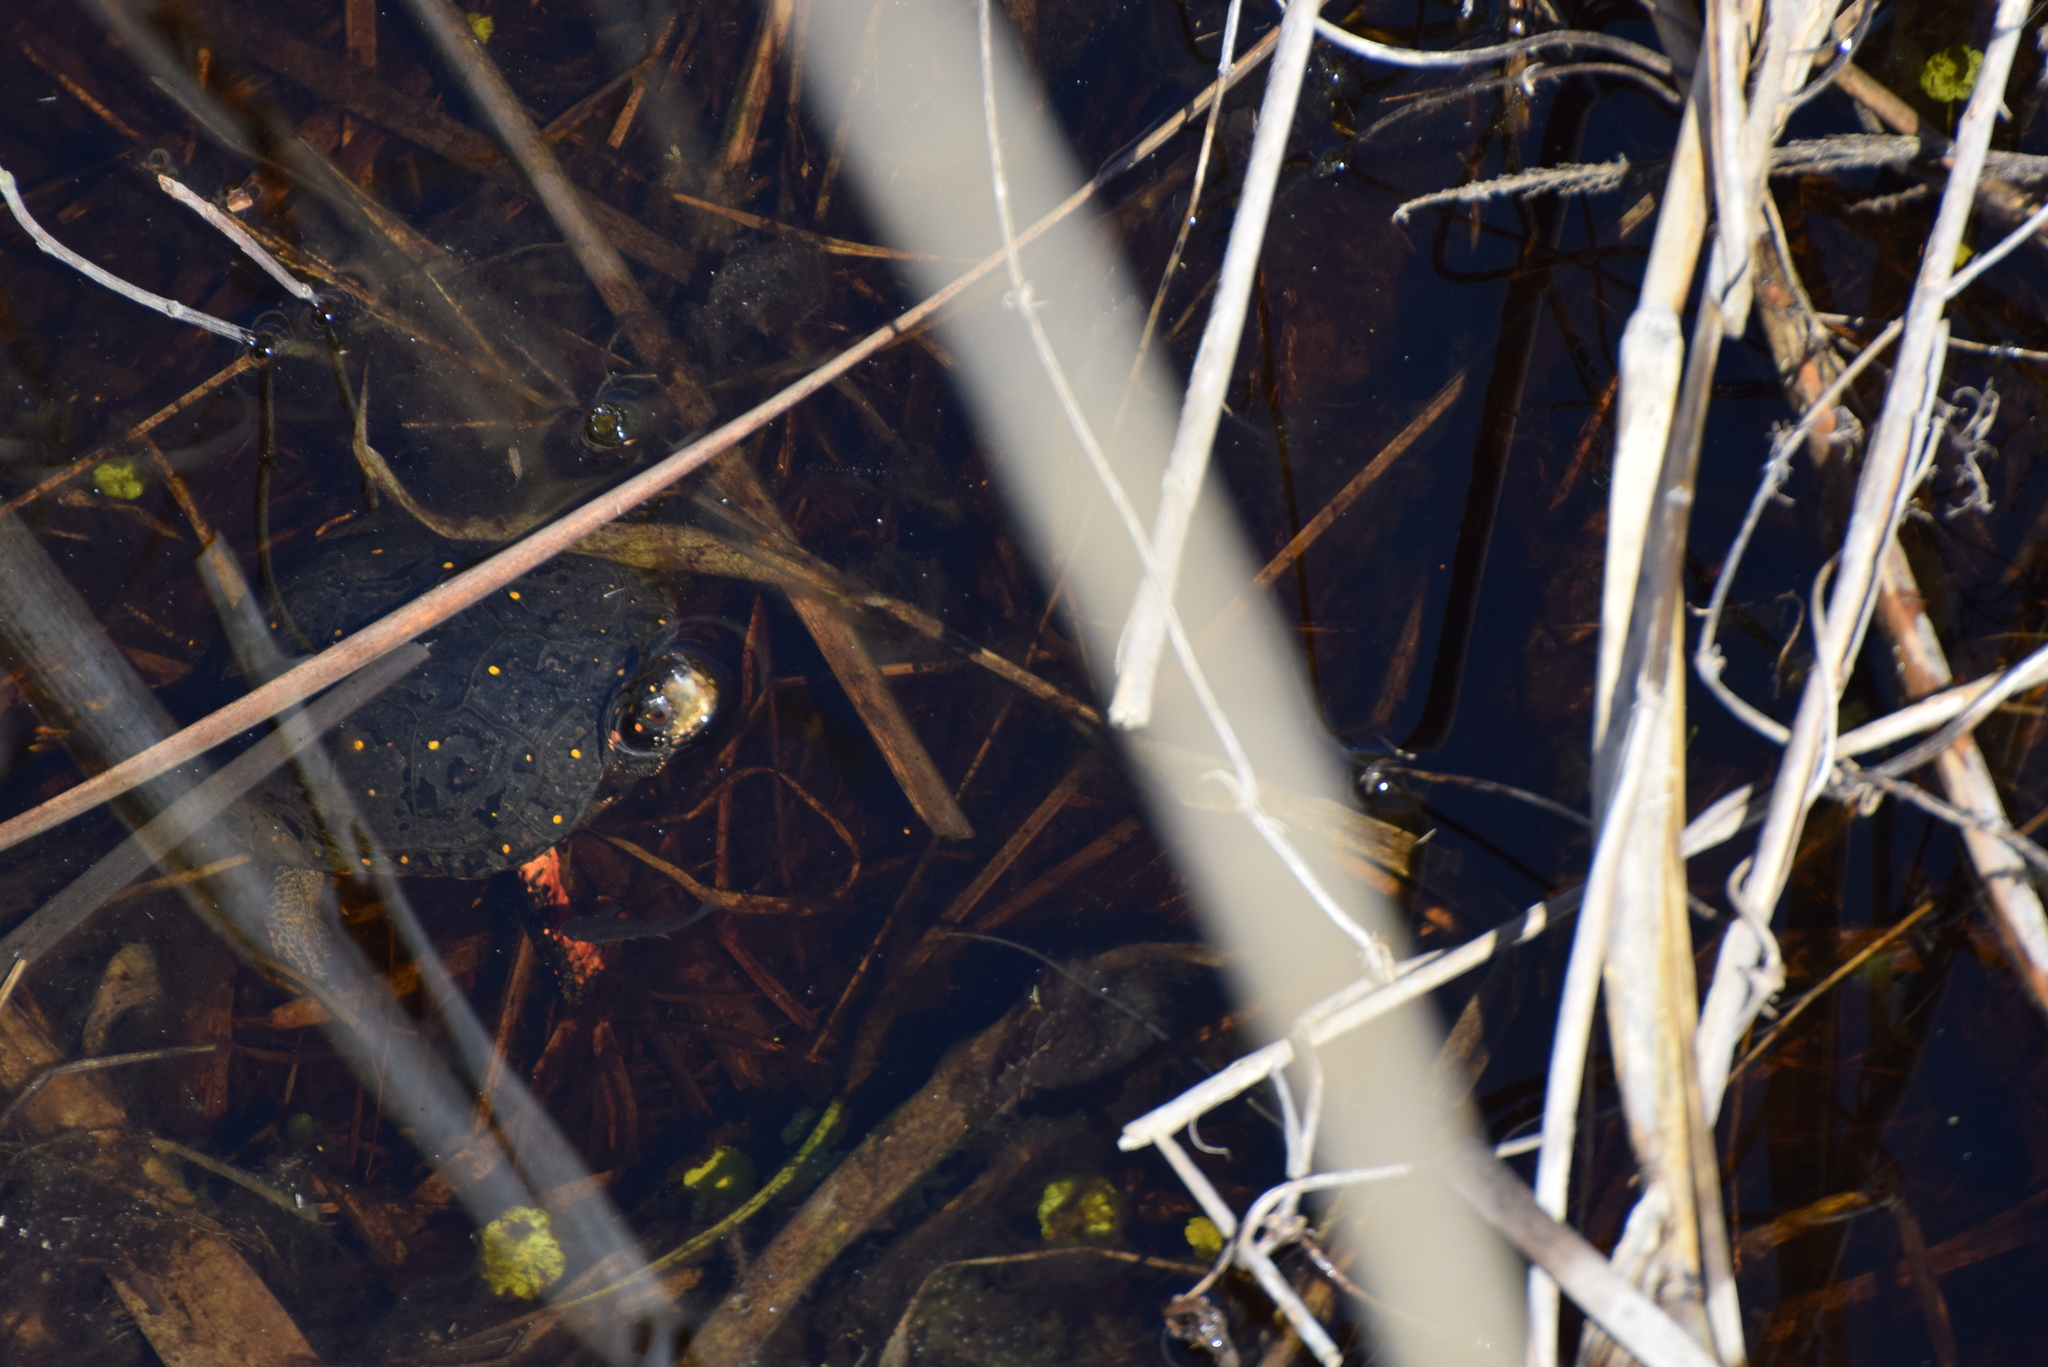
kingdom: Animalia
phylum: Chordata
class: Testudines
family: Emydidae
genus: Clemmys
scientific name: Clemmys guttata
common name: Spotted turtle
